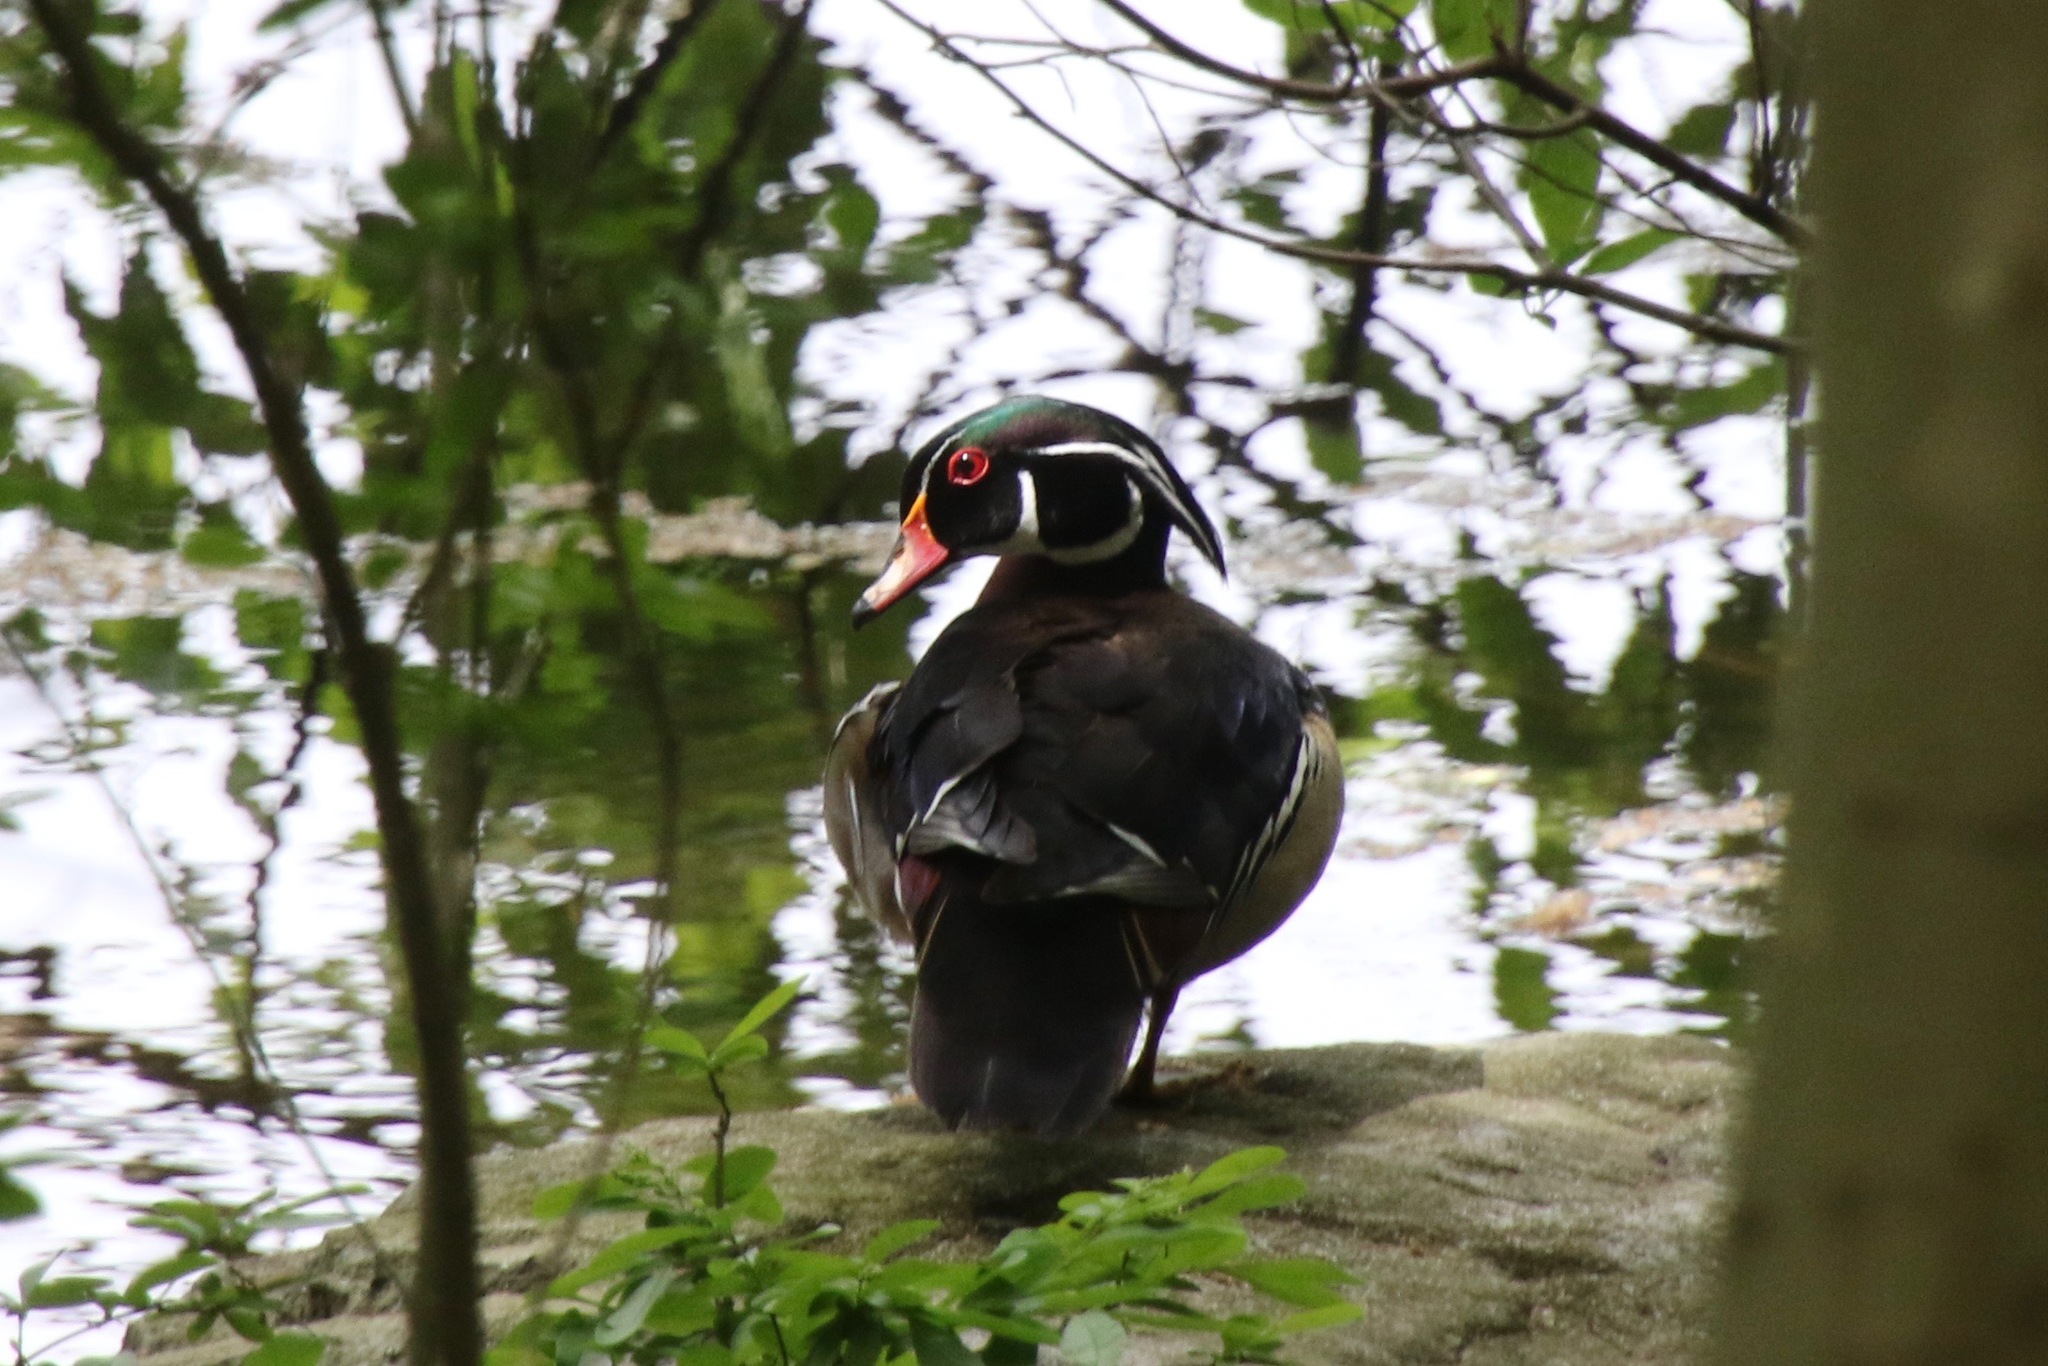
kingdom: Animalia
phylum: Chordata
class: Aves
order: Anseriformes
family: Anatidae
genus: Aix
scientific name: Aix sponsa
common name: Wood duck
